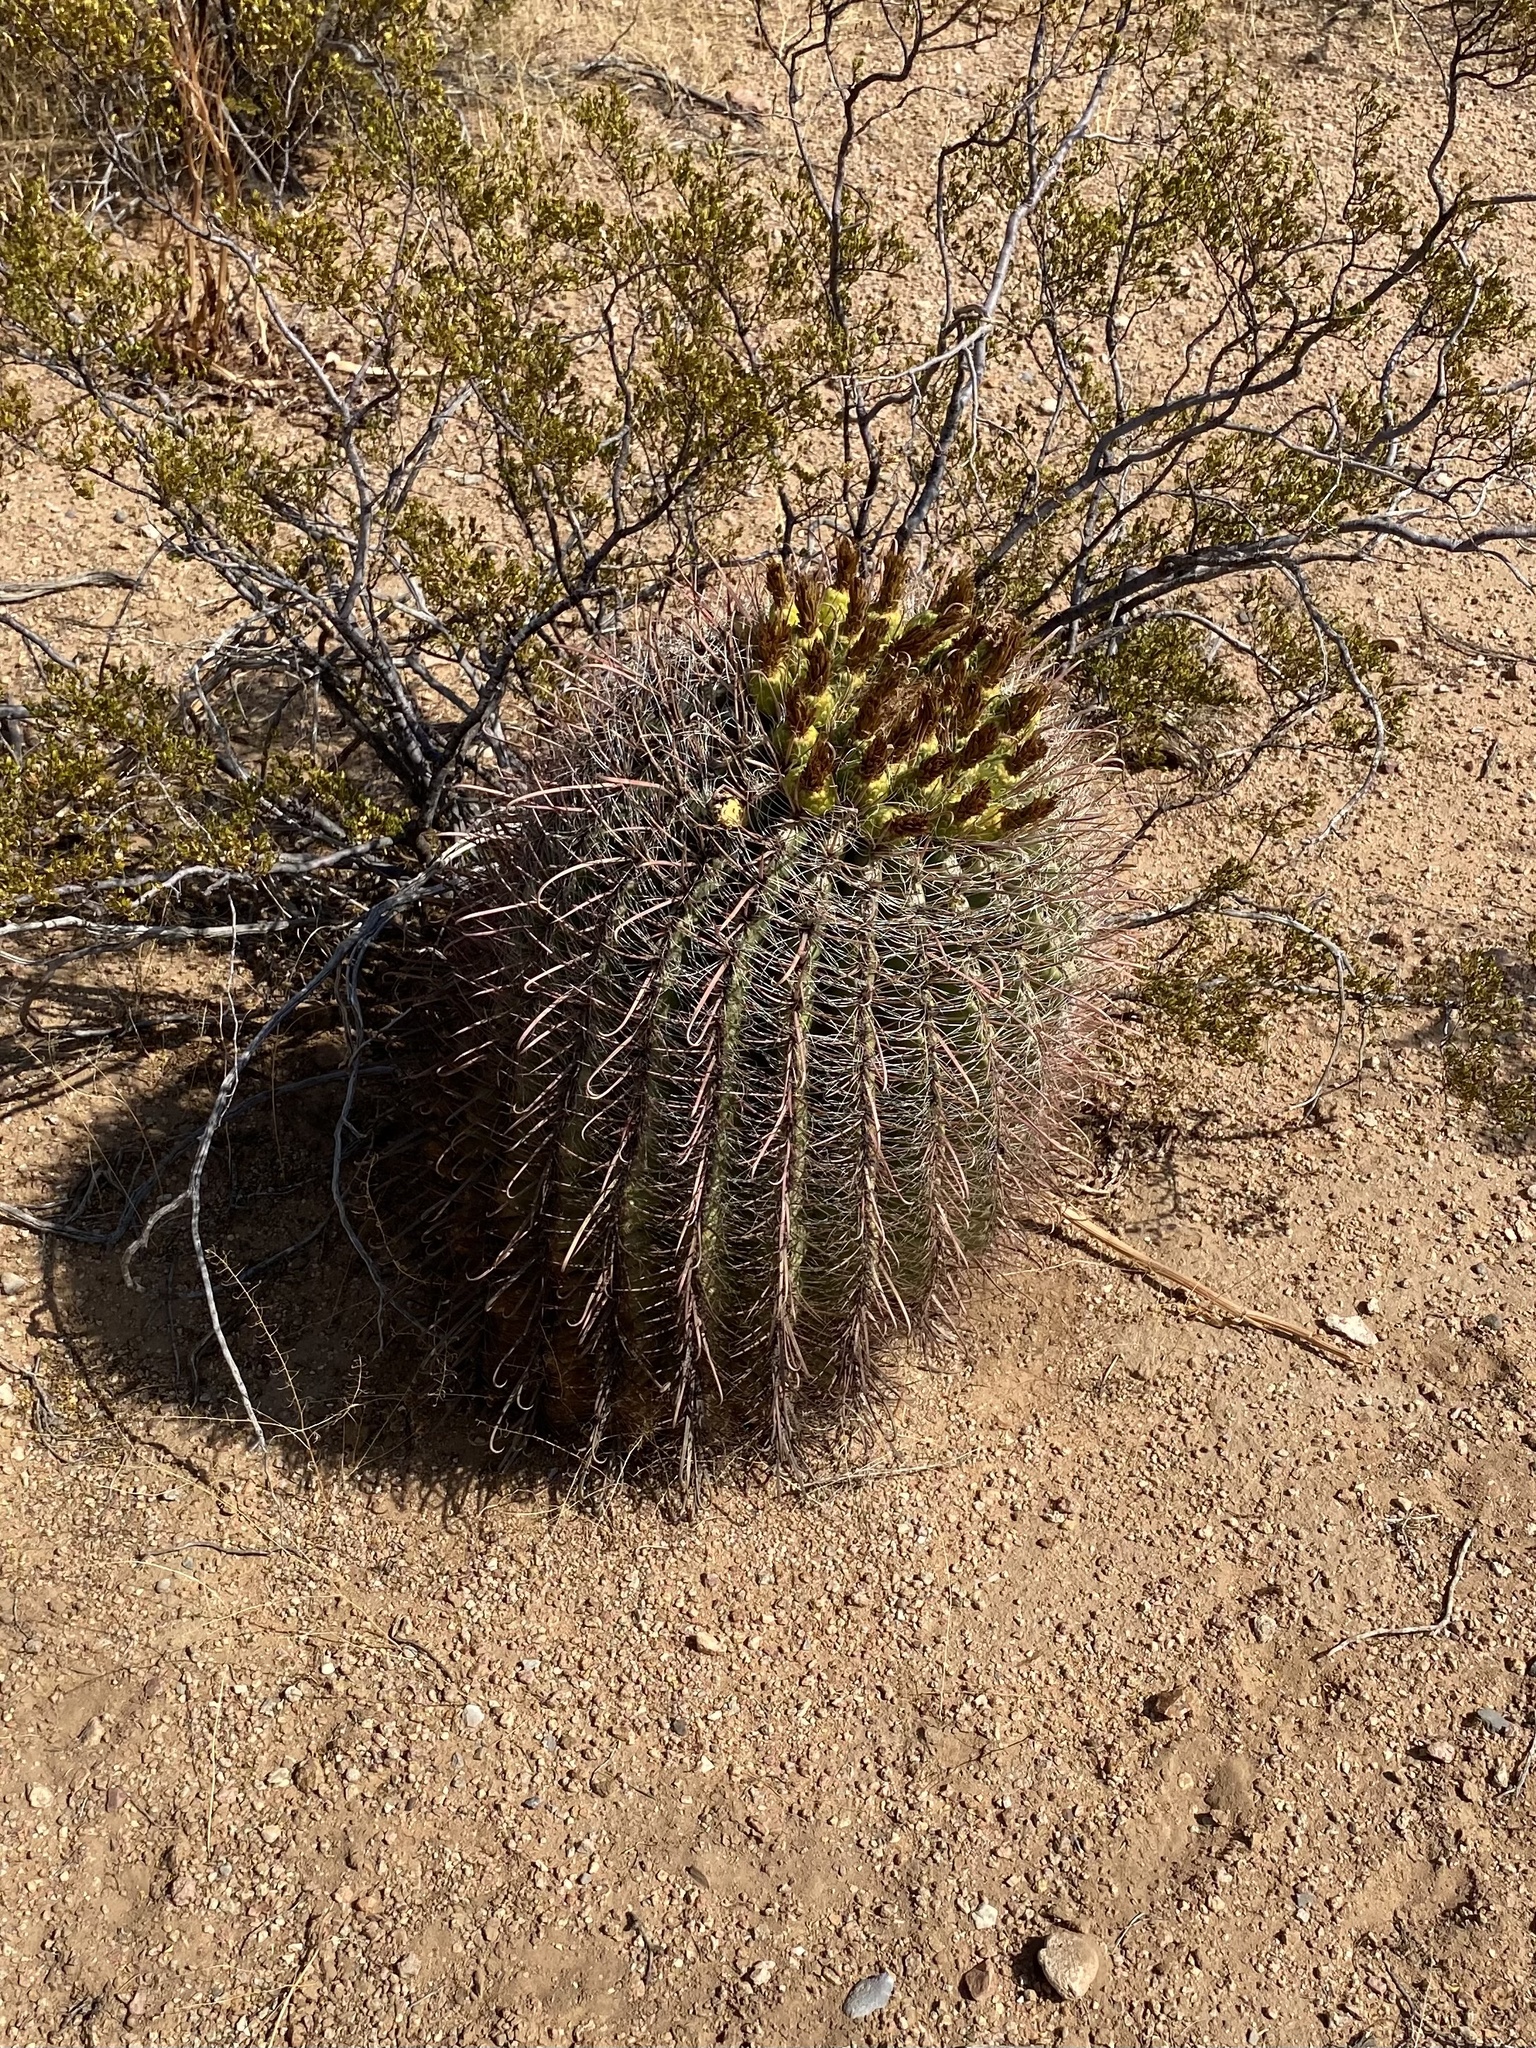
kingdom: Plantae
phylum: Tracheophyta
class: Magnoliopsida
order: Caryophyllales
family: Cactaceae
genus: Ferocactus
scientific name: Ferocactus wislizeni
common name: Candy barrel cactus
